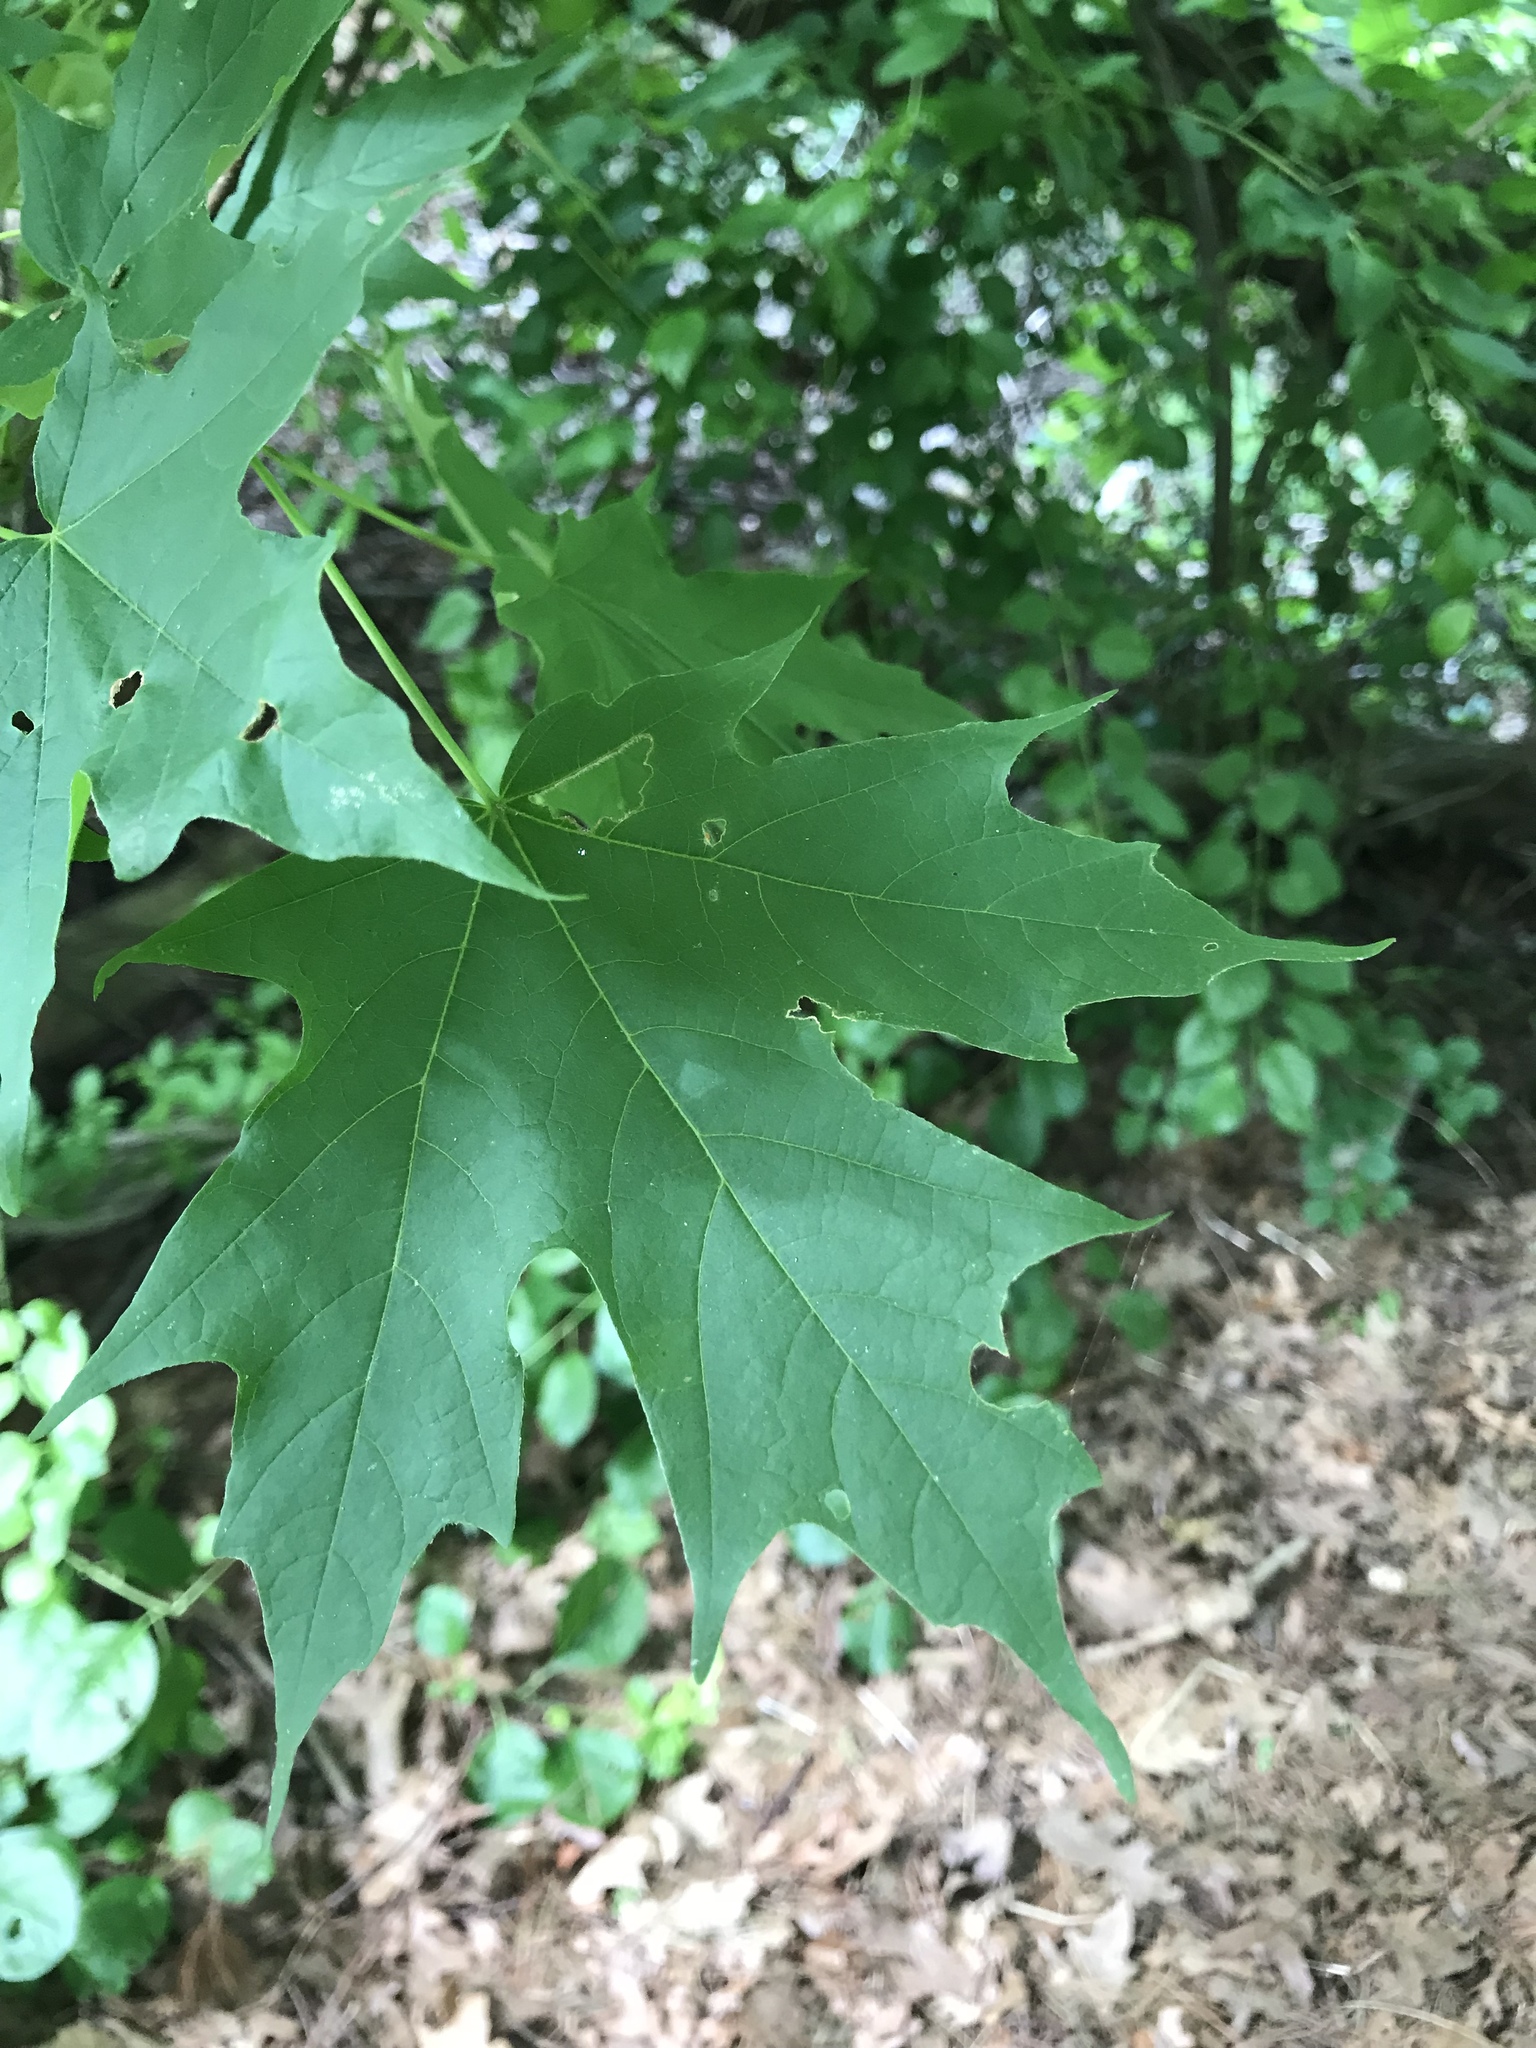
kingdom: Plantae
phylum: Tracheophyta
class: Magnoliopsida
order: Sapindales
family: Sapindaceae
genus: Acer
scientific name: Acer saccharum
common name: Sugar maple
